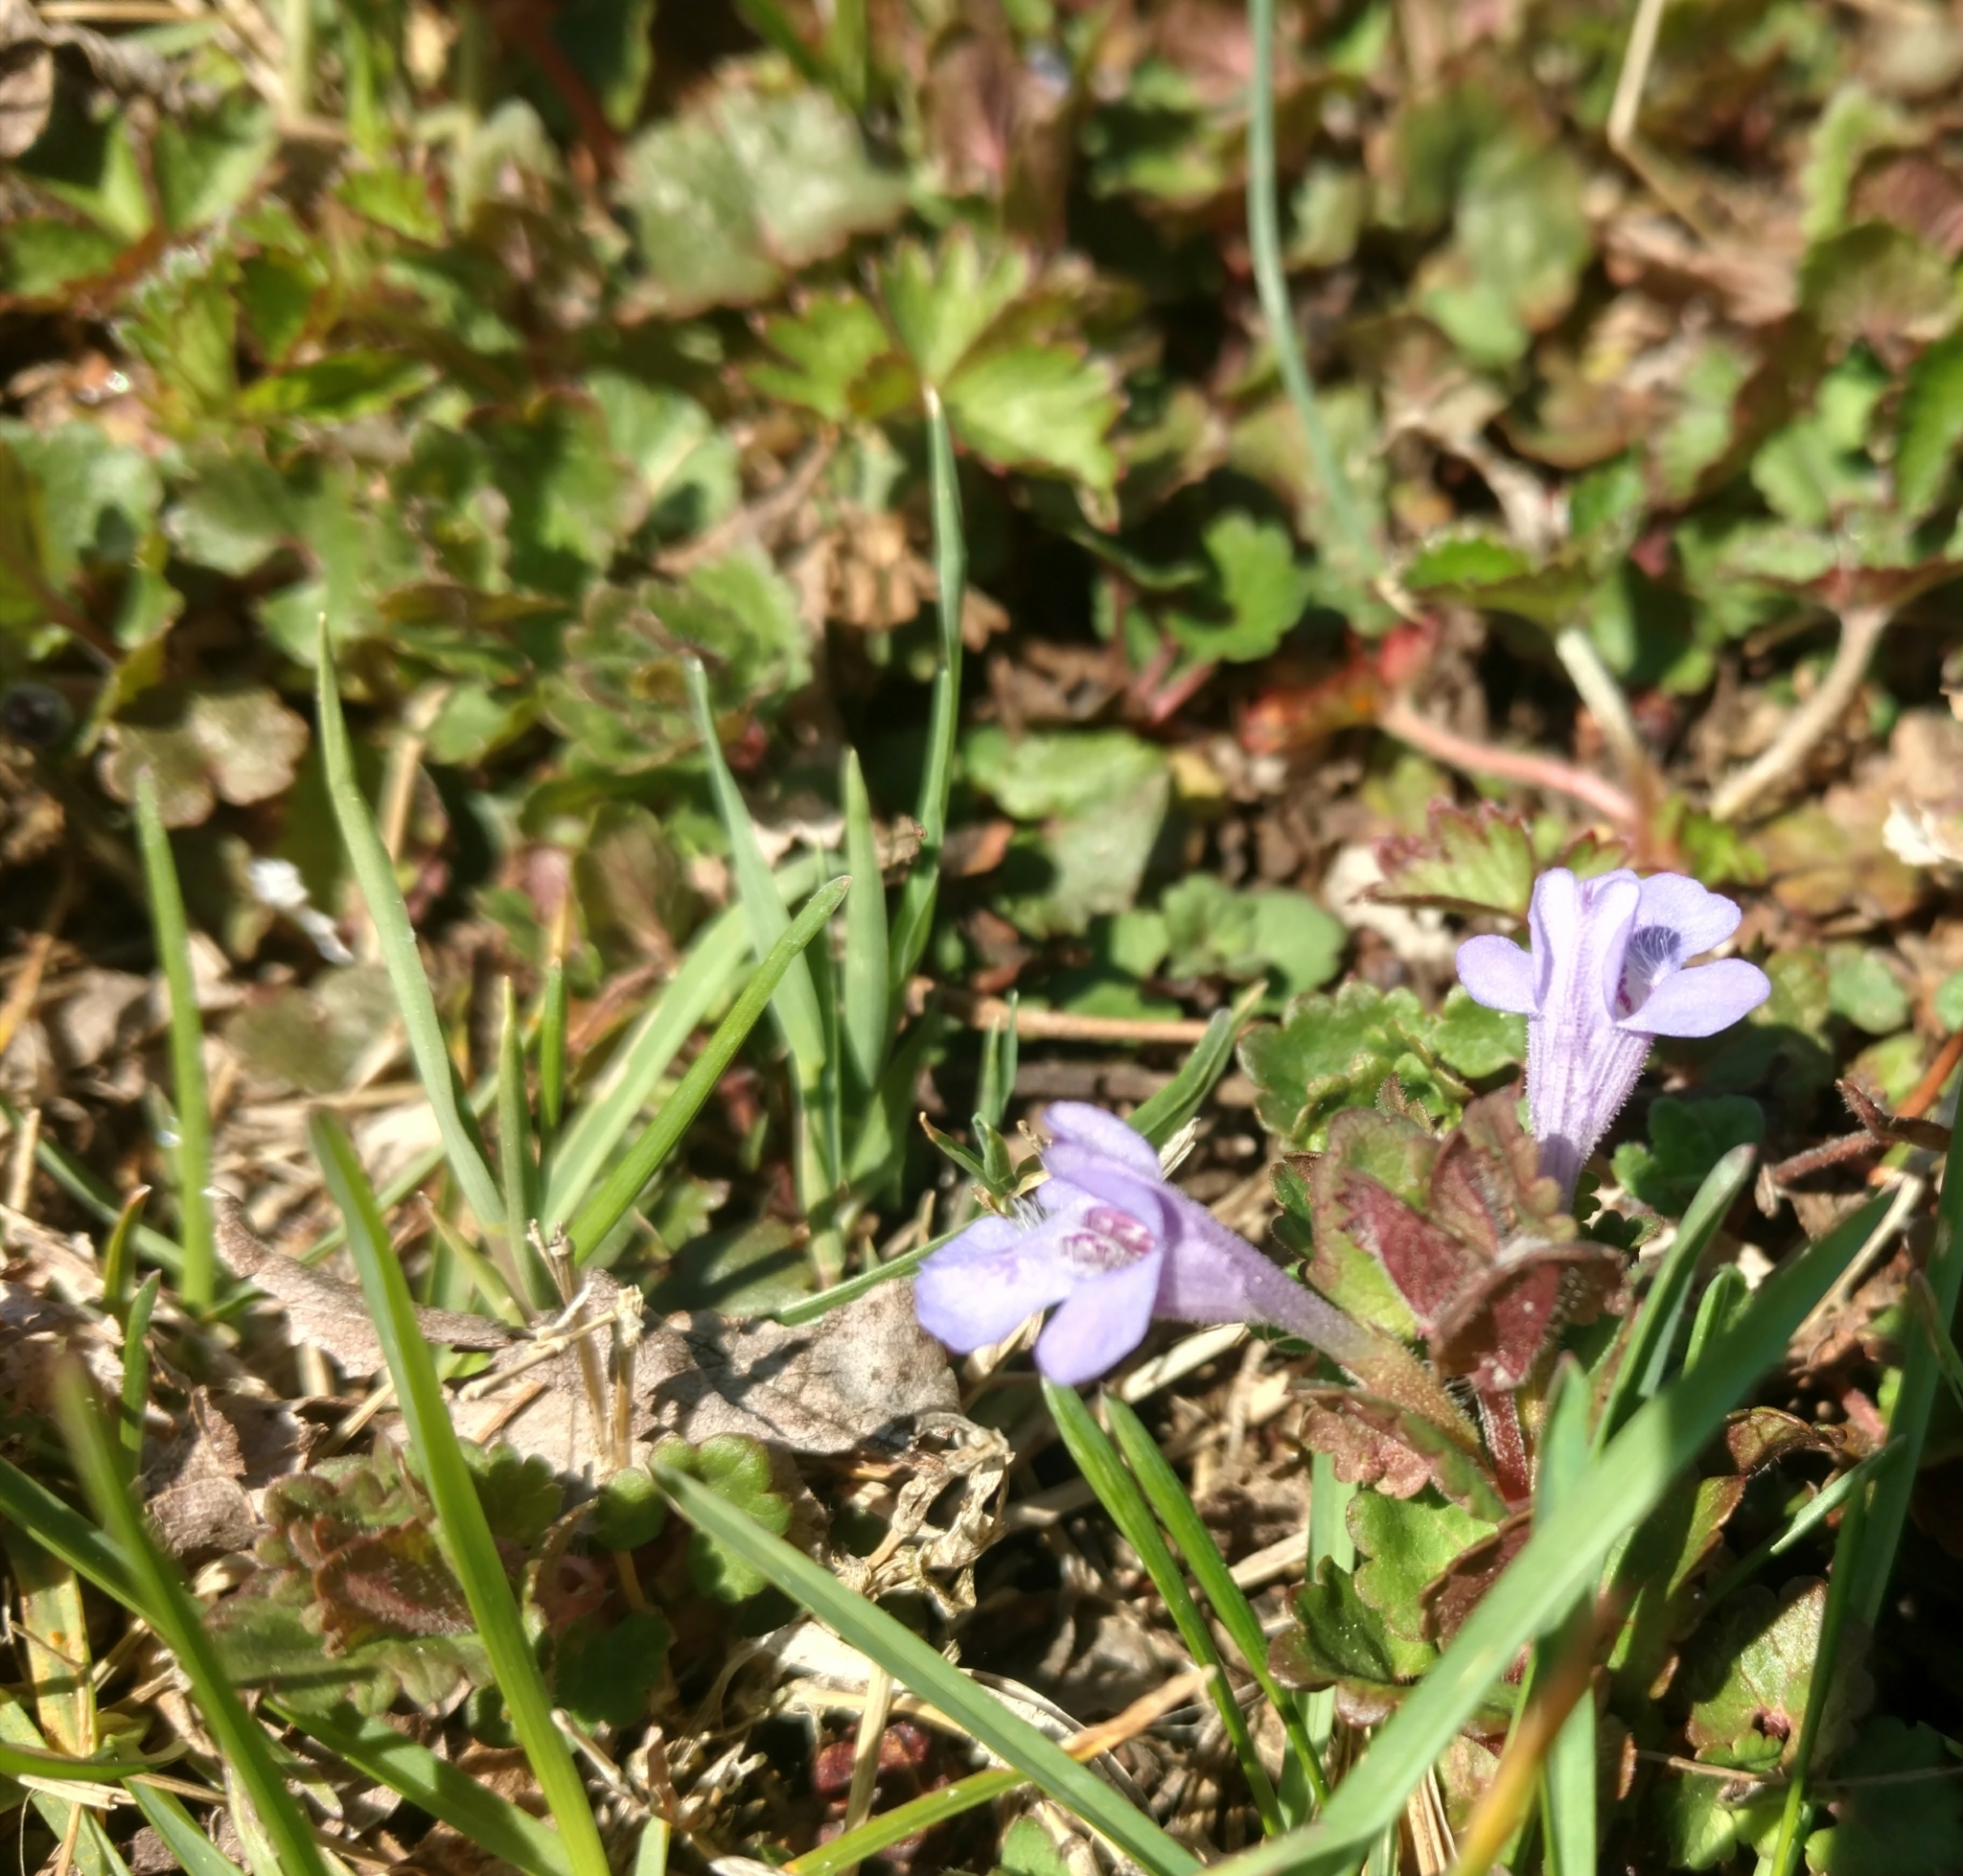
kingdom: Plantae
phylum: Tracheophyta
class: Magnoliopsida
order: Lamiales
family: Lamiaceae
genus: Glechoma
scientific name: Glechoma hederacea
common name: Ground ivy
